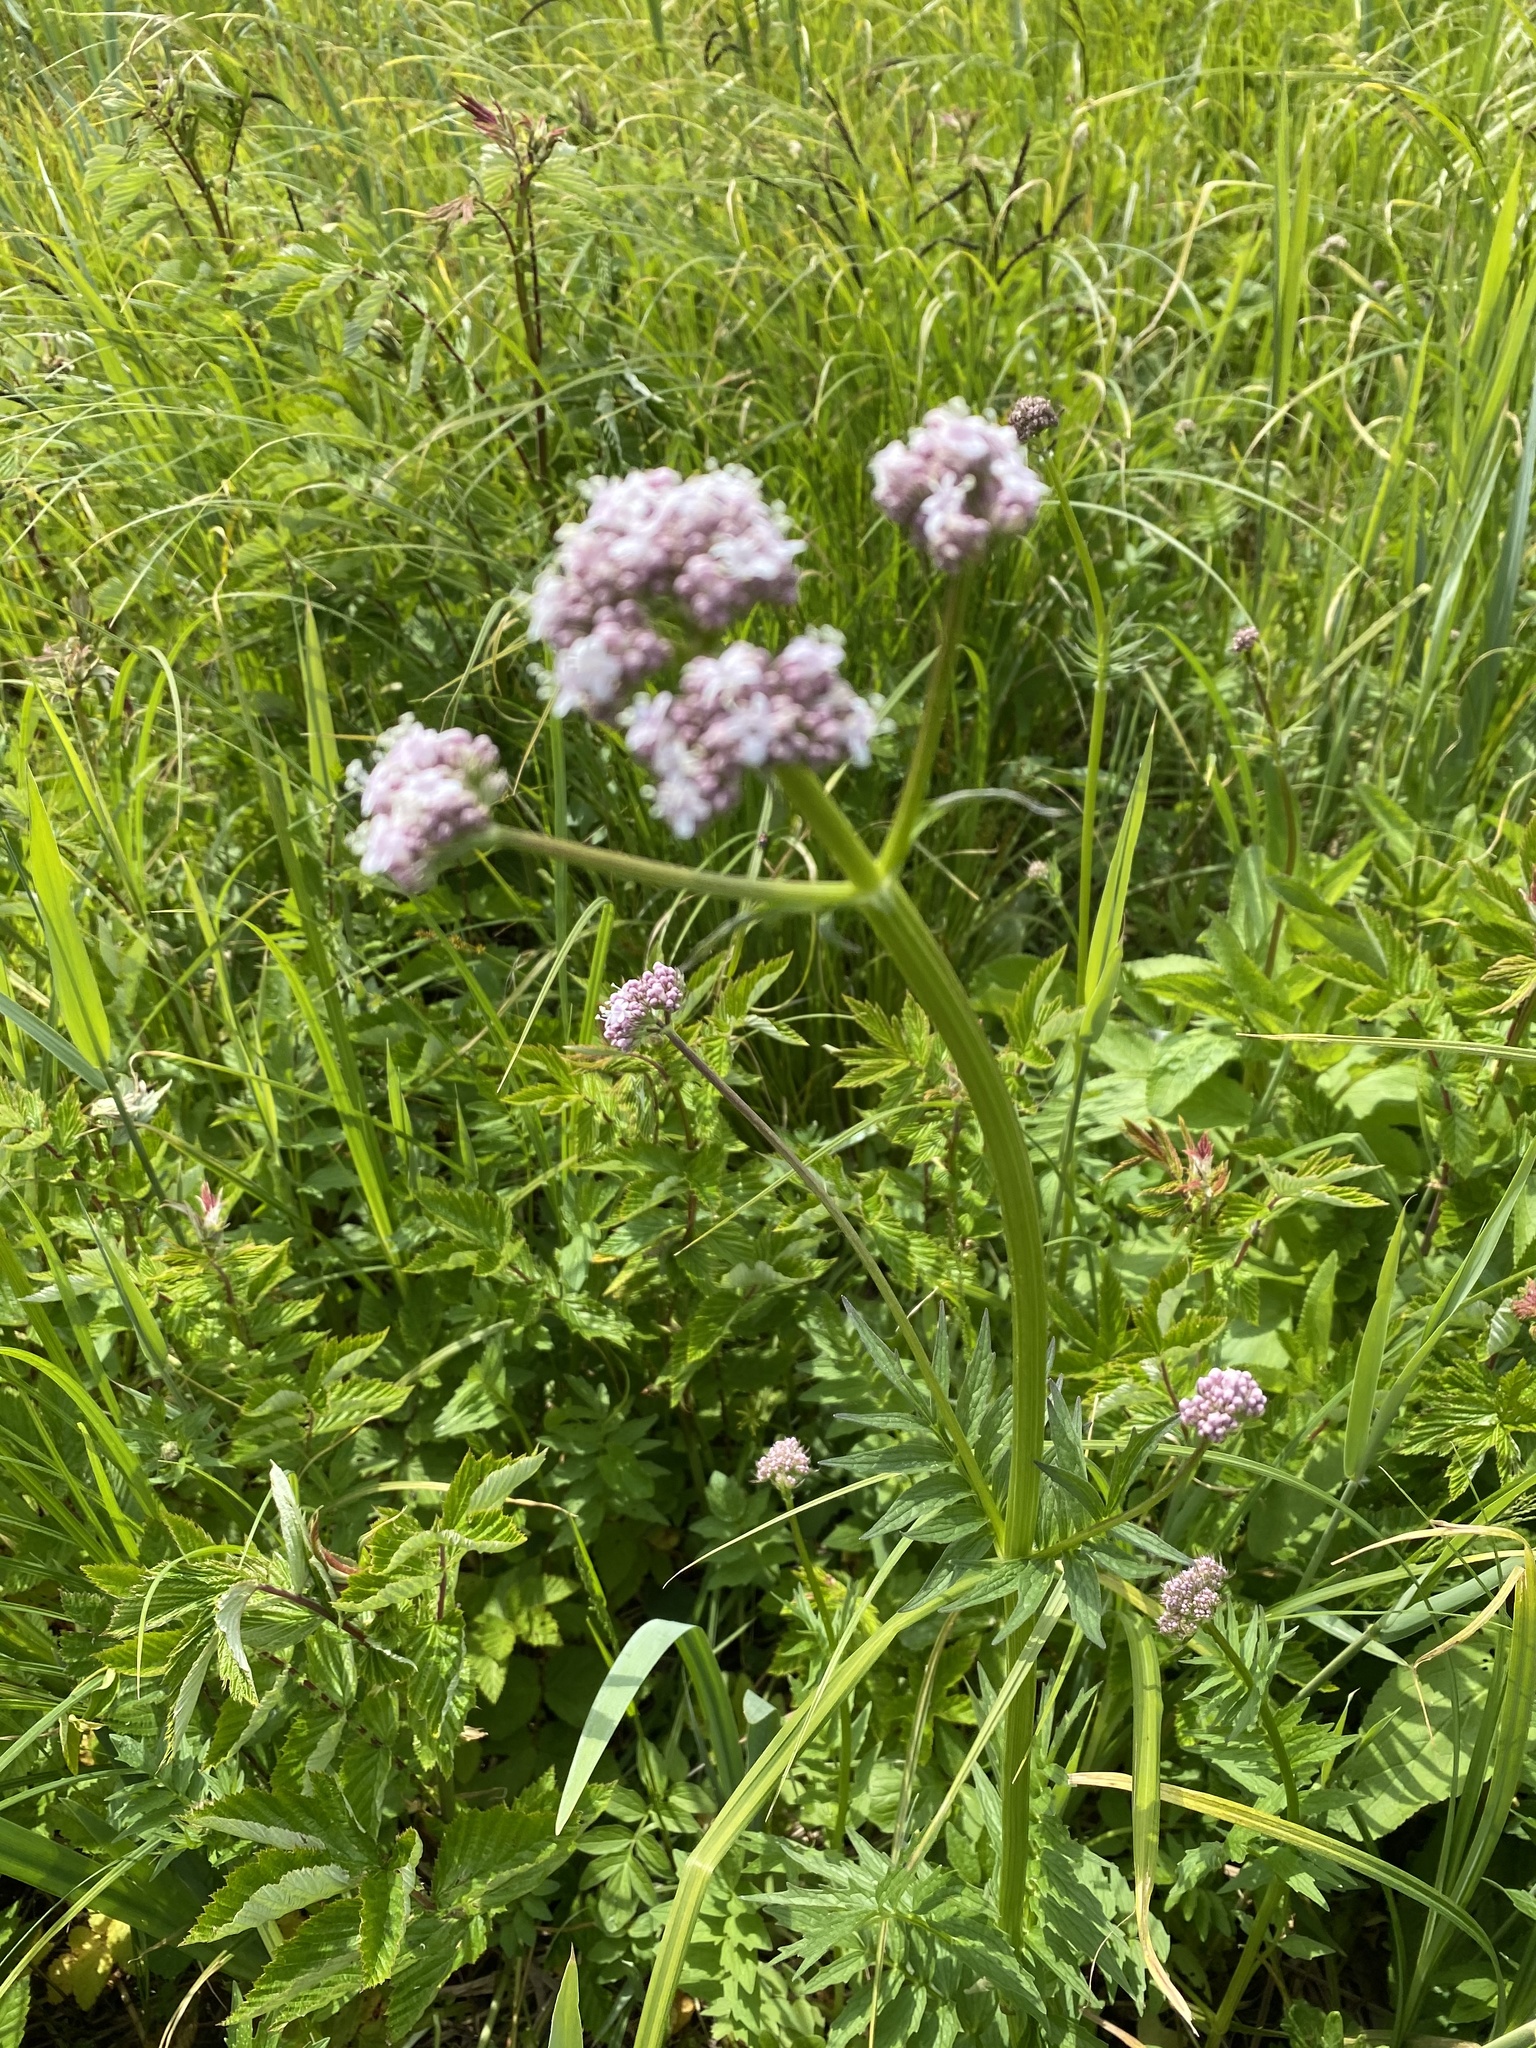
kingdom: Plantae
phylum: Tracheophyta
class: Magnoliopsida
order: Dipsacales
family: Caprifoliaceae
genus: Valeriana
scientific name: Valeriana officinalis
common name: Common valerian
